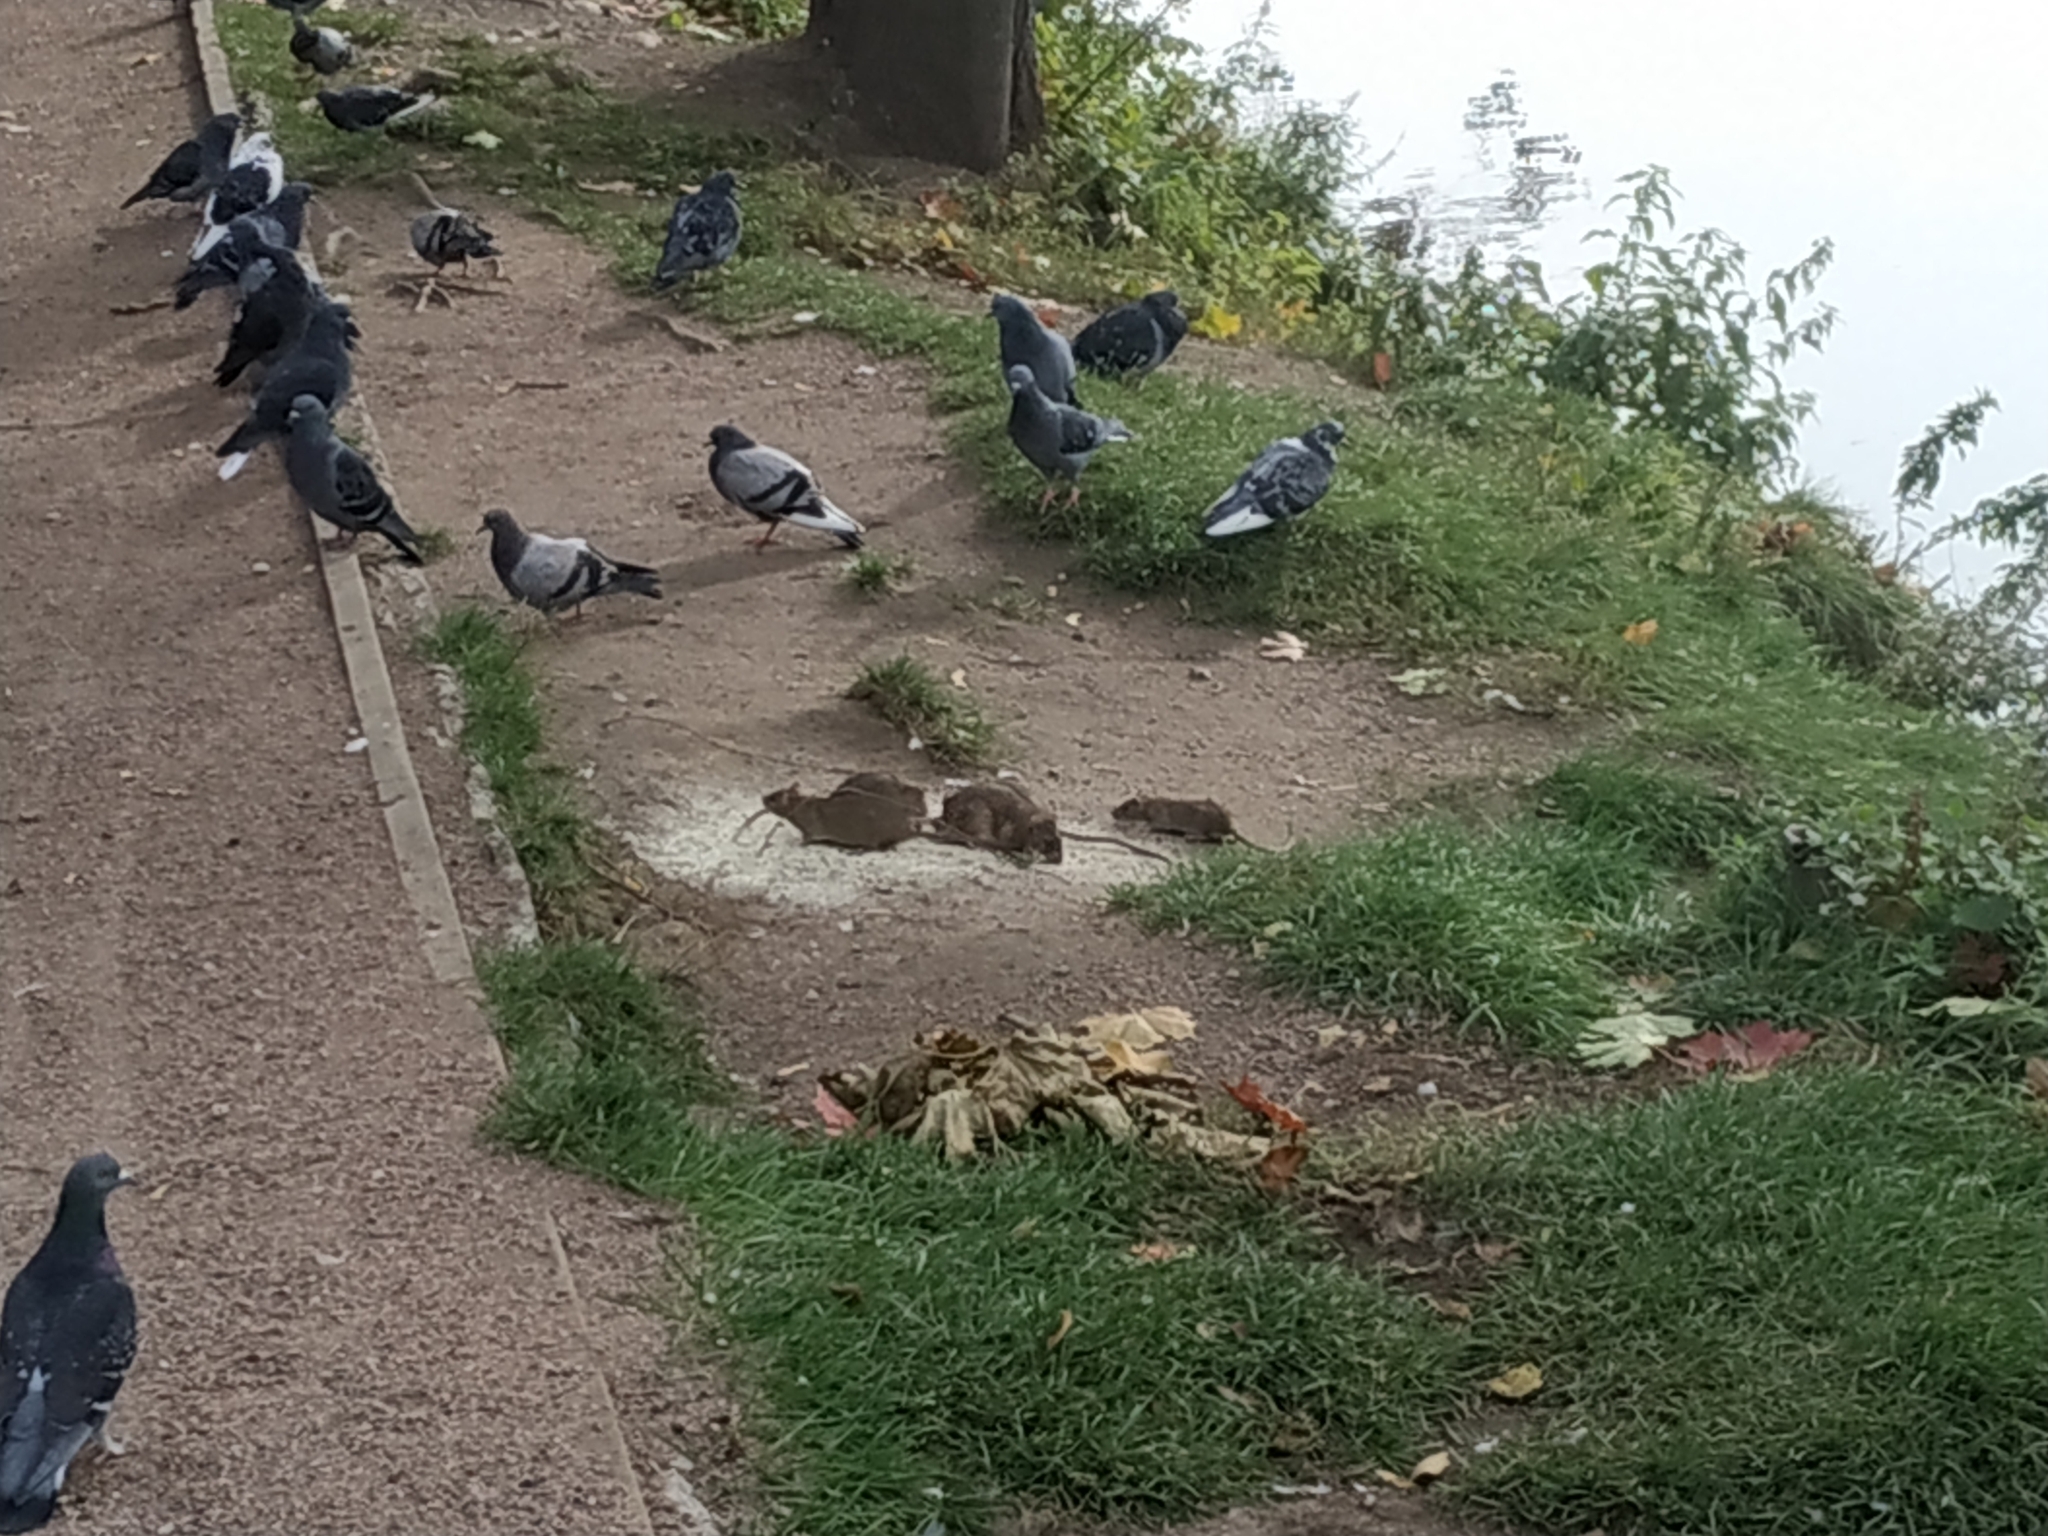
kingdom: Animalia
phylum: Chordata
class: Mammalia
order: Rodentia
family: Muridae
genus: Rattus
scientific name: Rattus norvegicus
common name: Brown rat
